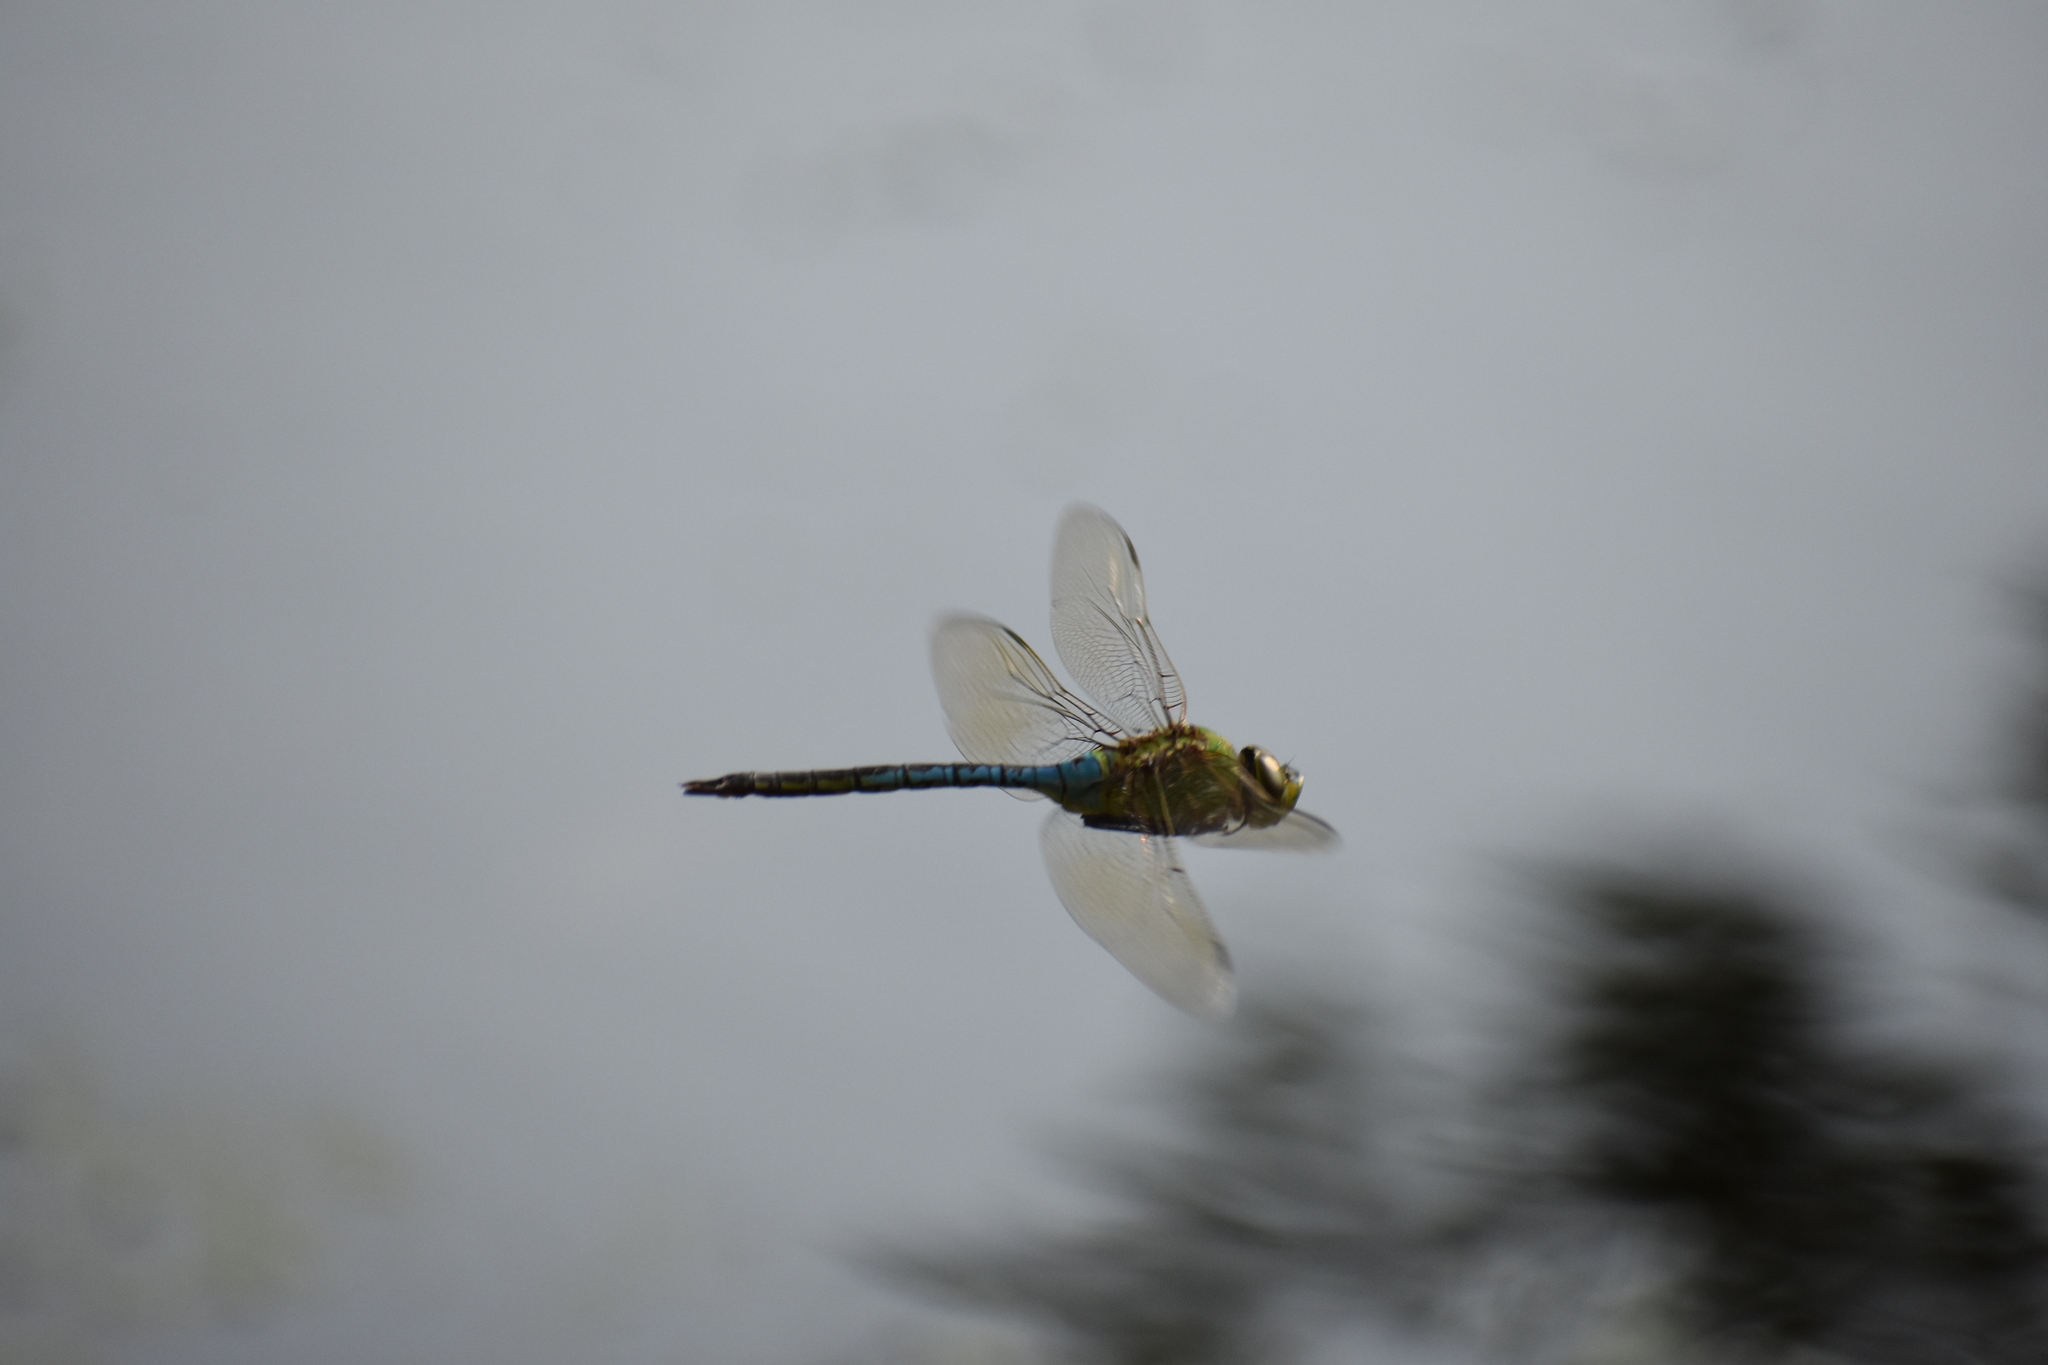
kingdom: Animalia
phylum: Arthropoda
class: Insecta
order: Odonata
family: Aeshnidae
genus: Anax
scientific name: Anax junius
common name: Common green darner
